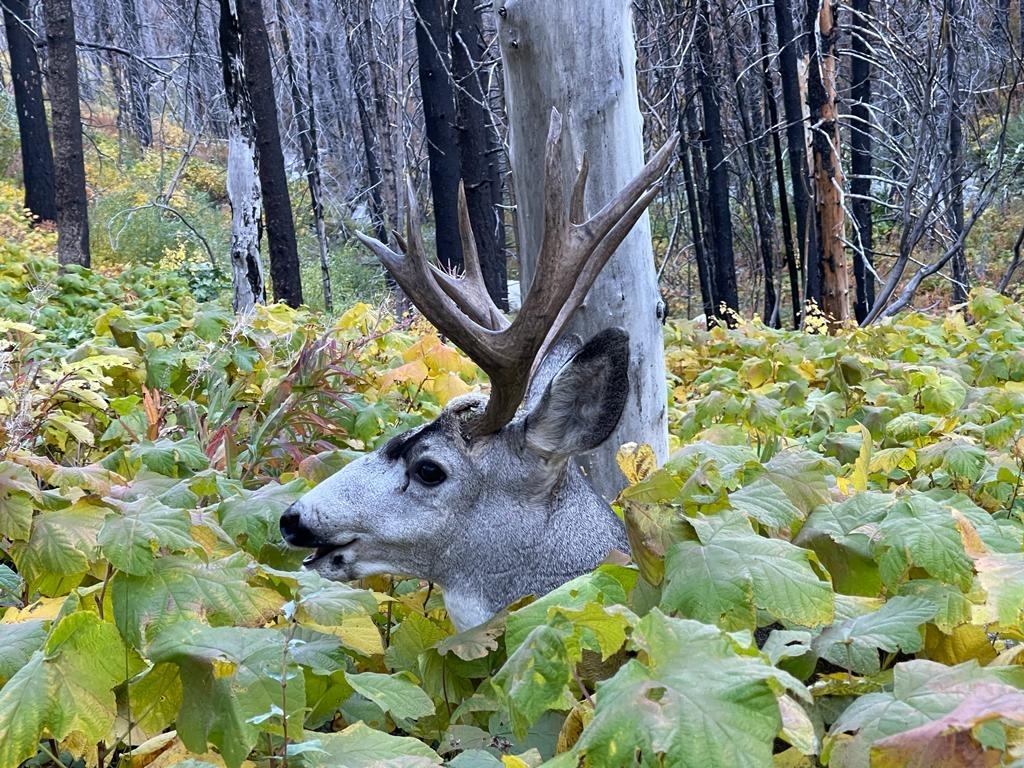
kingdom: Animalia
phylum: Chordata
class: Mammalia
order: Artiodactyla
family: Cervidae
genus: Odocoileus
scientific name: Odocoileus hemionus
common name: Mule deer
